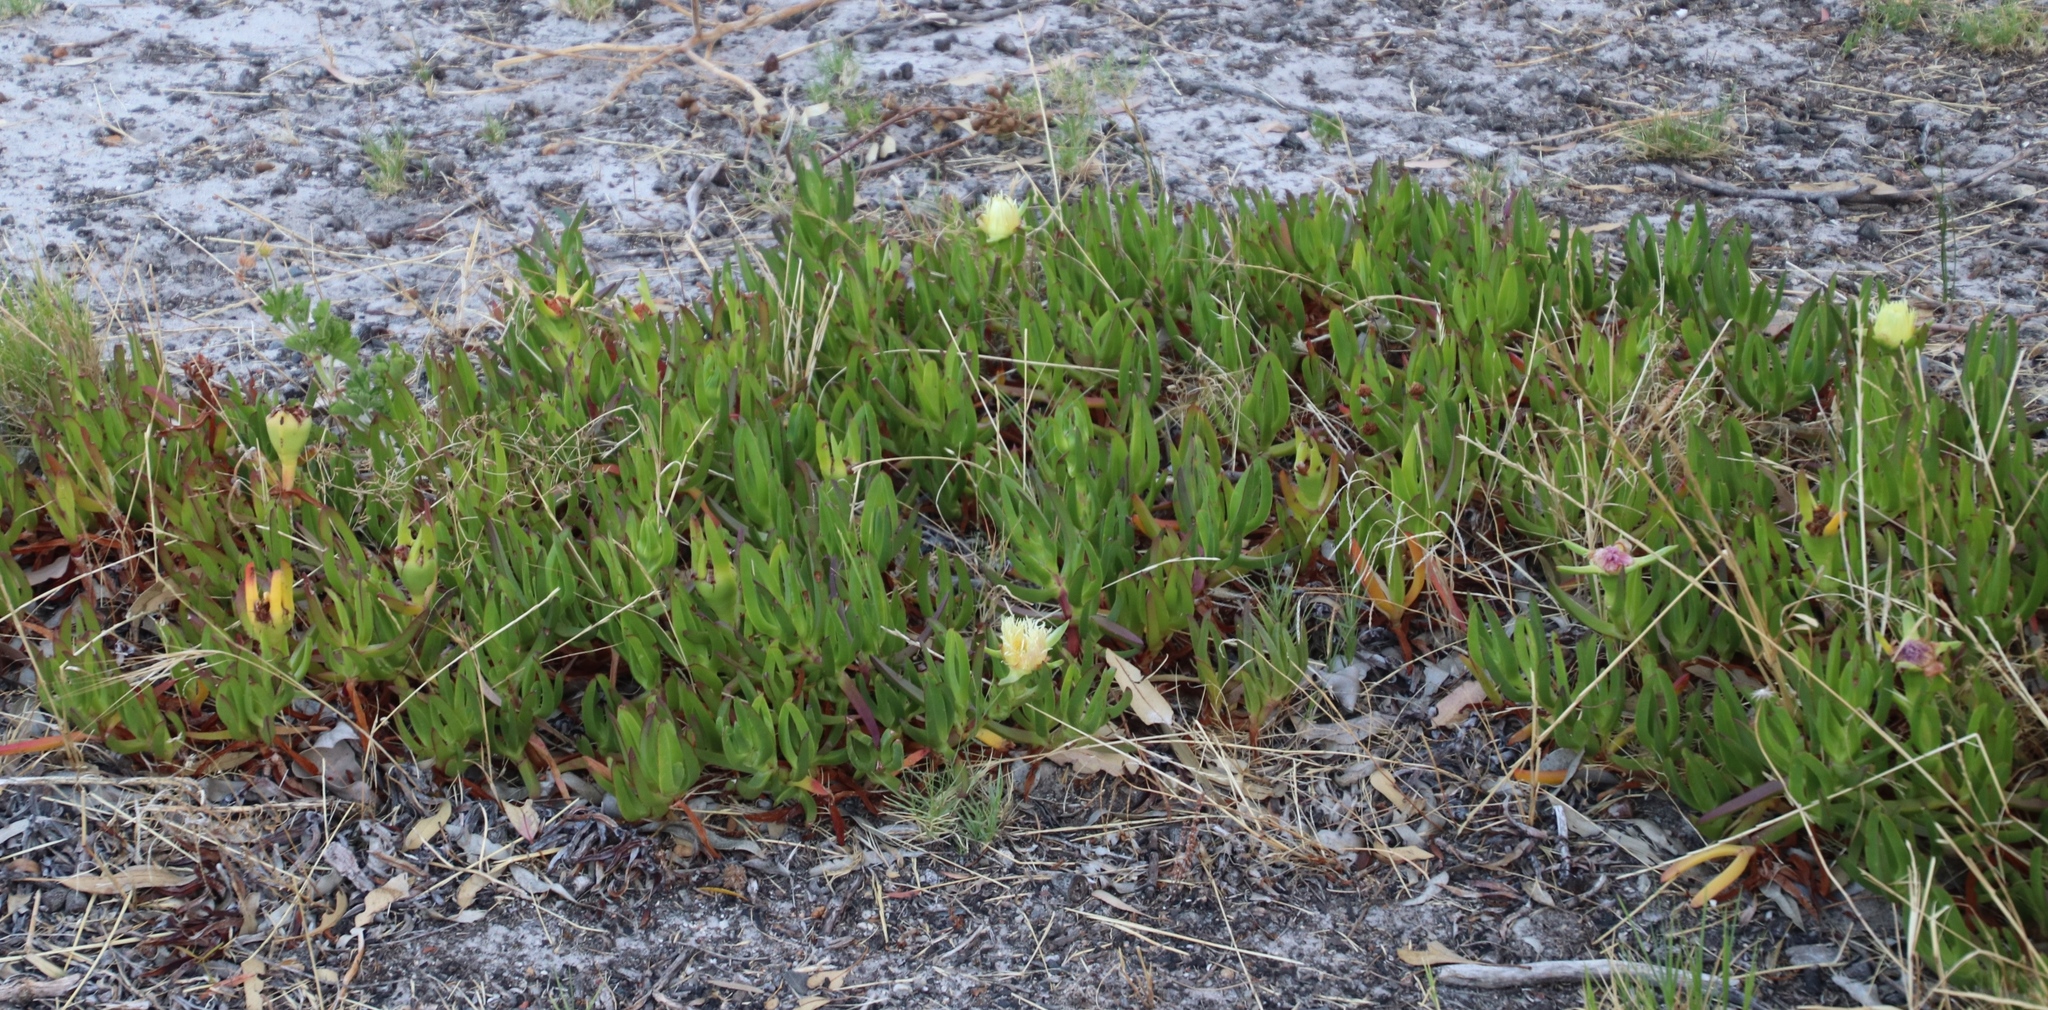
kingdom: Plantae
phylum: Tracheophyta
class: Magnoliopsida
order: Caryophyllales
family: Aizoaceae
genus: Carpobrotus
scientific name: Carpobrotus edulis
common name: Hottentot-fig
